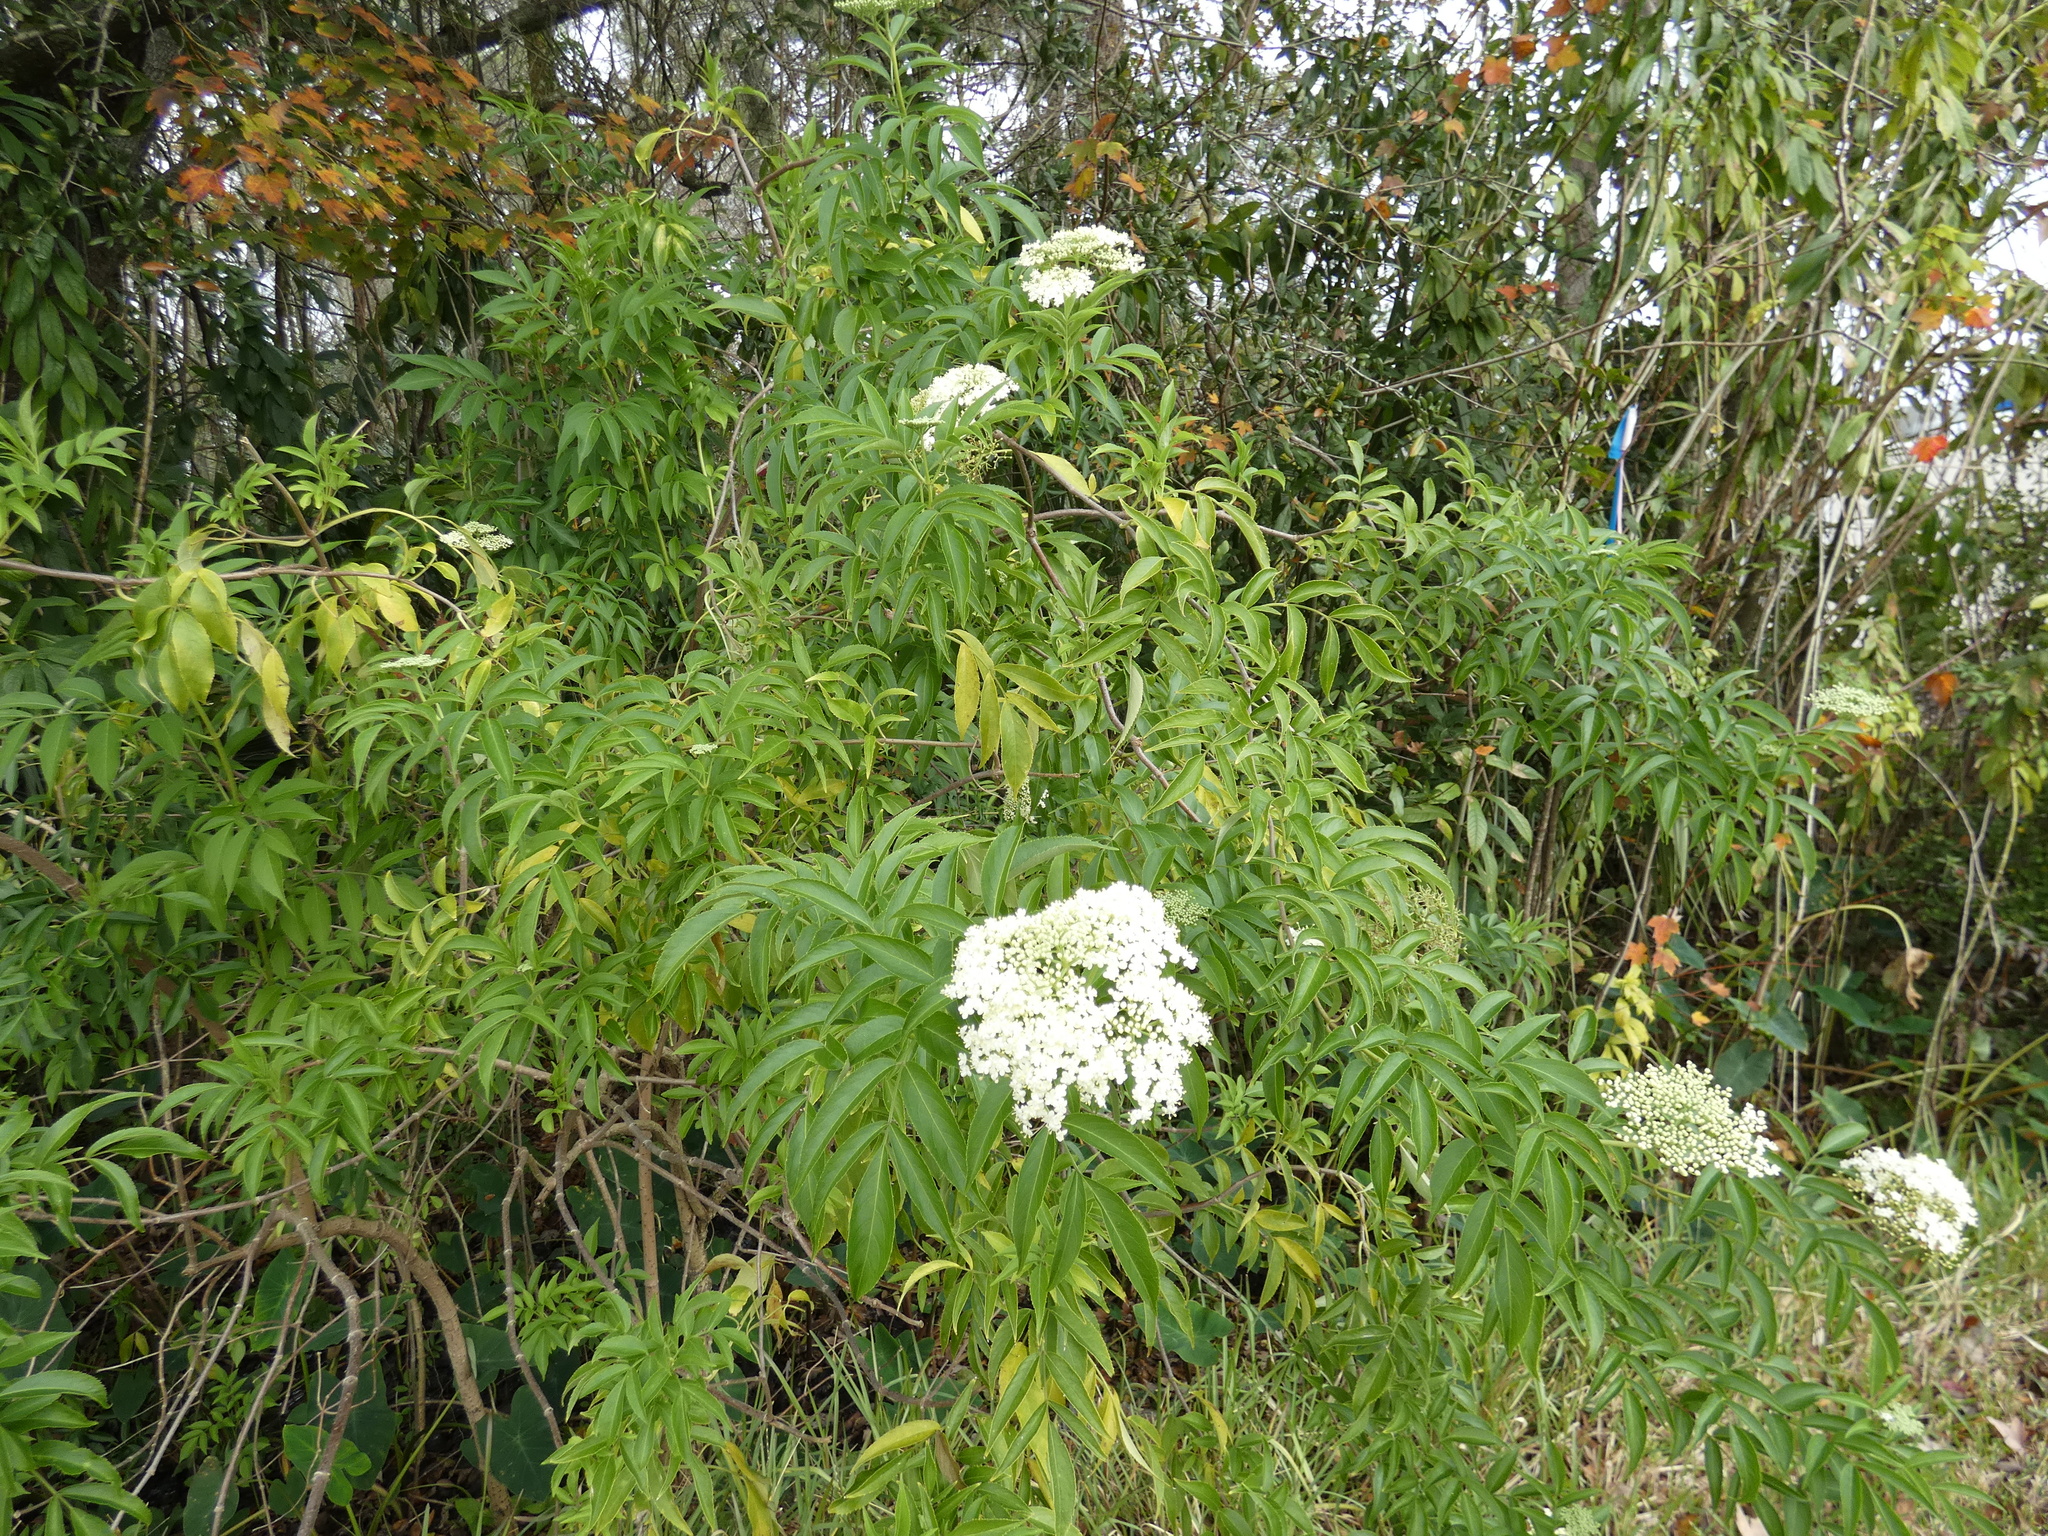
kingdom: Plantae
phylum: Tracheophyta
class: Magnoliopsida
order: Dipsacales
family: Viburnaceae
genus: Sambucus
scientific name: Sambucus canadensis
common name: American elder
